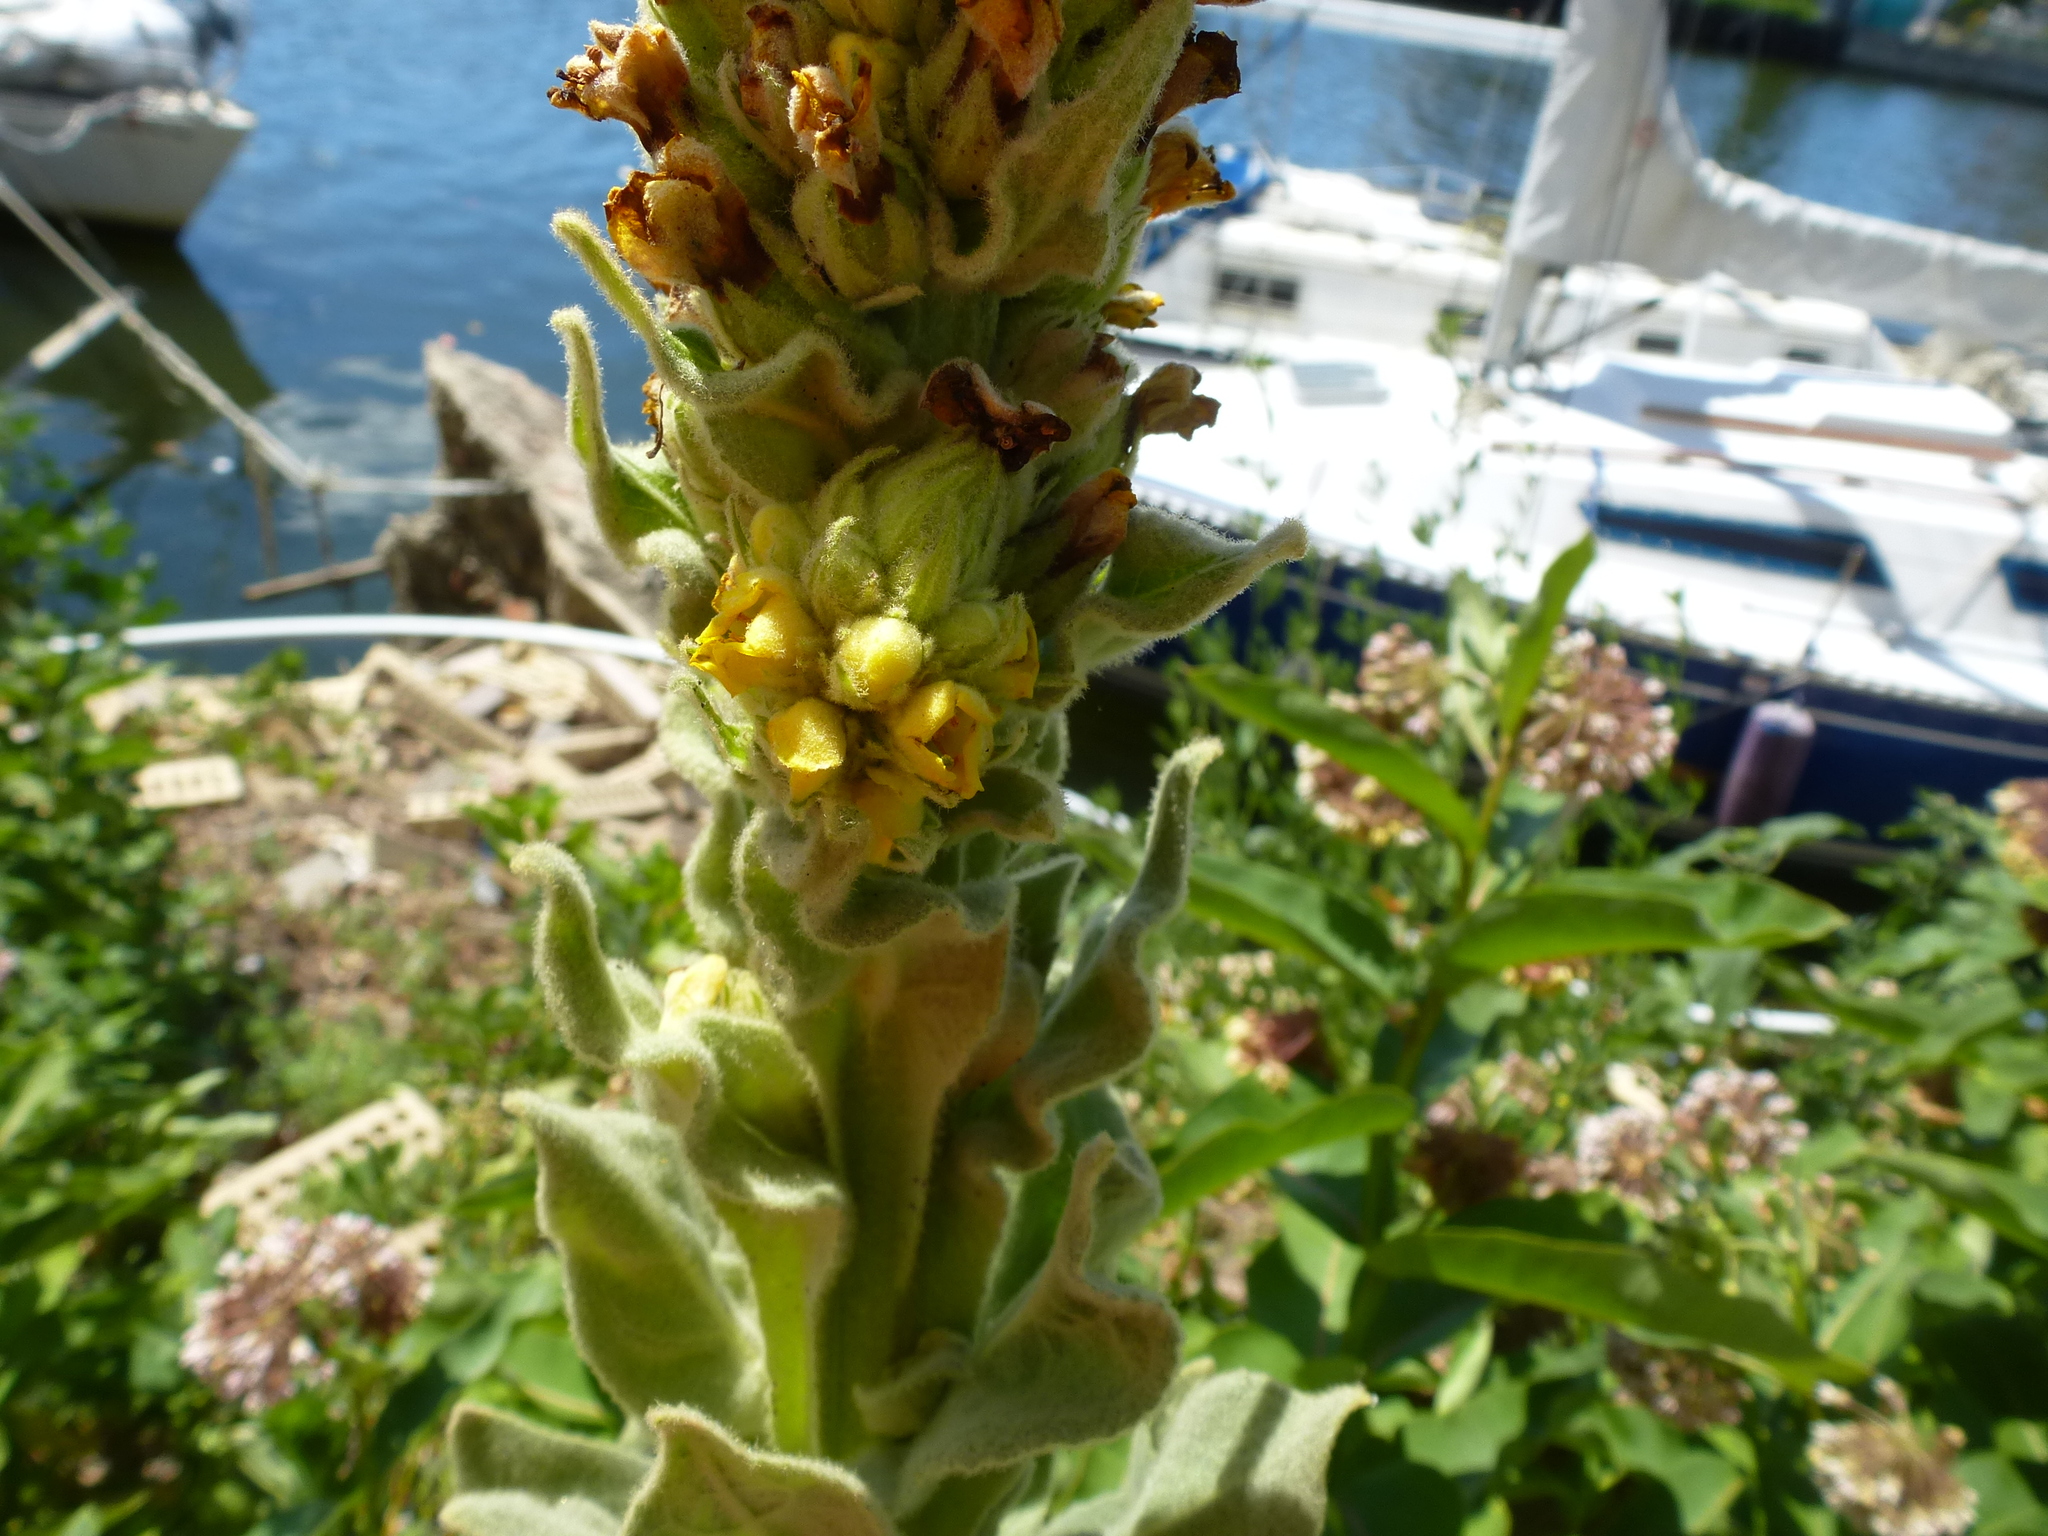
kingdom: Plantae
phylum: Tracheophyta
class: Magnoliopsida
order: Lamiales
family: Scrophulariaceae
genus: Verbascum
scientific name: Verbascum thapsus
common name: Common mullein
